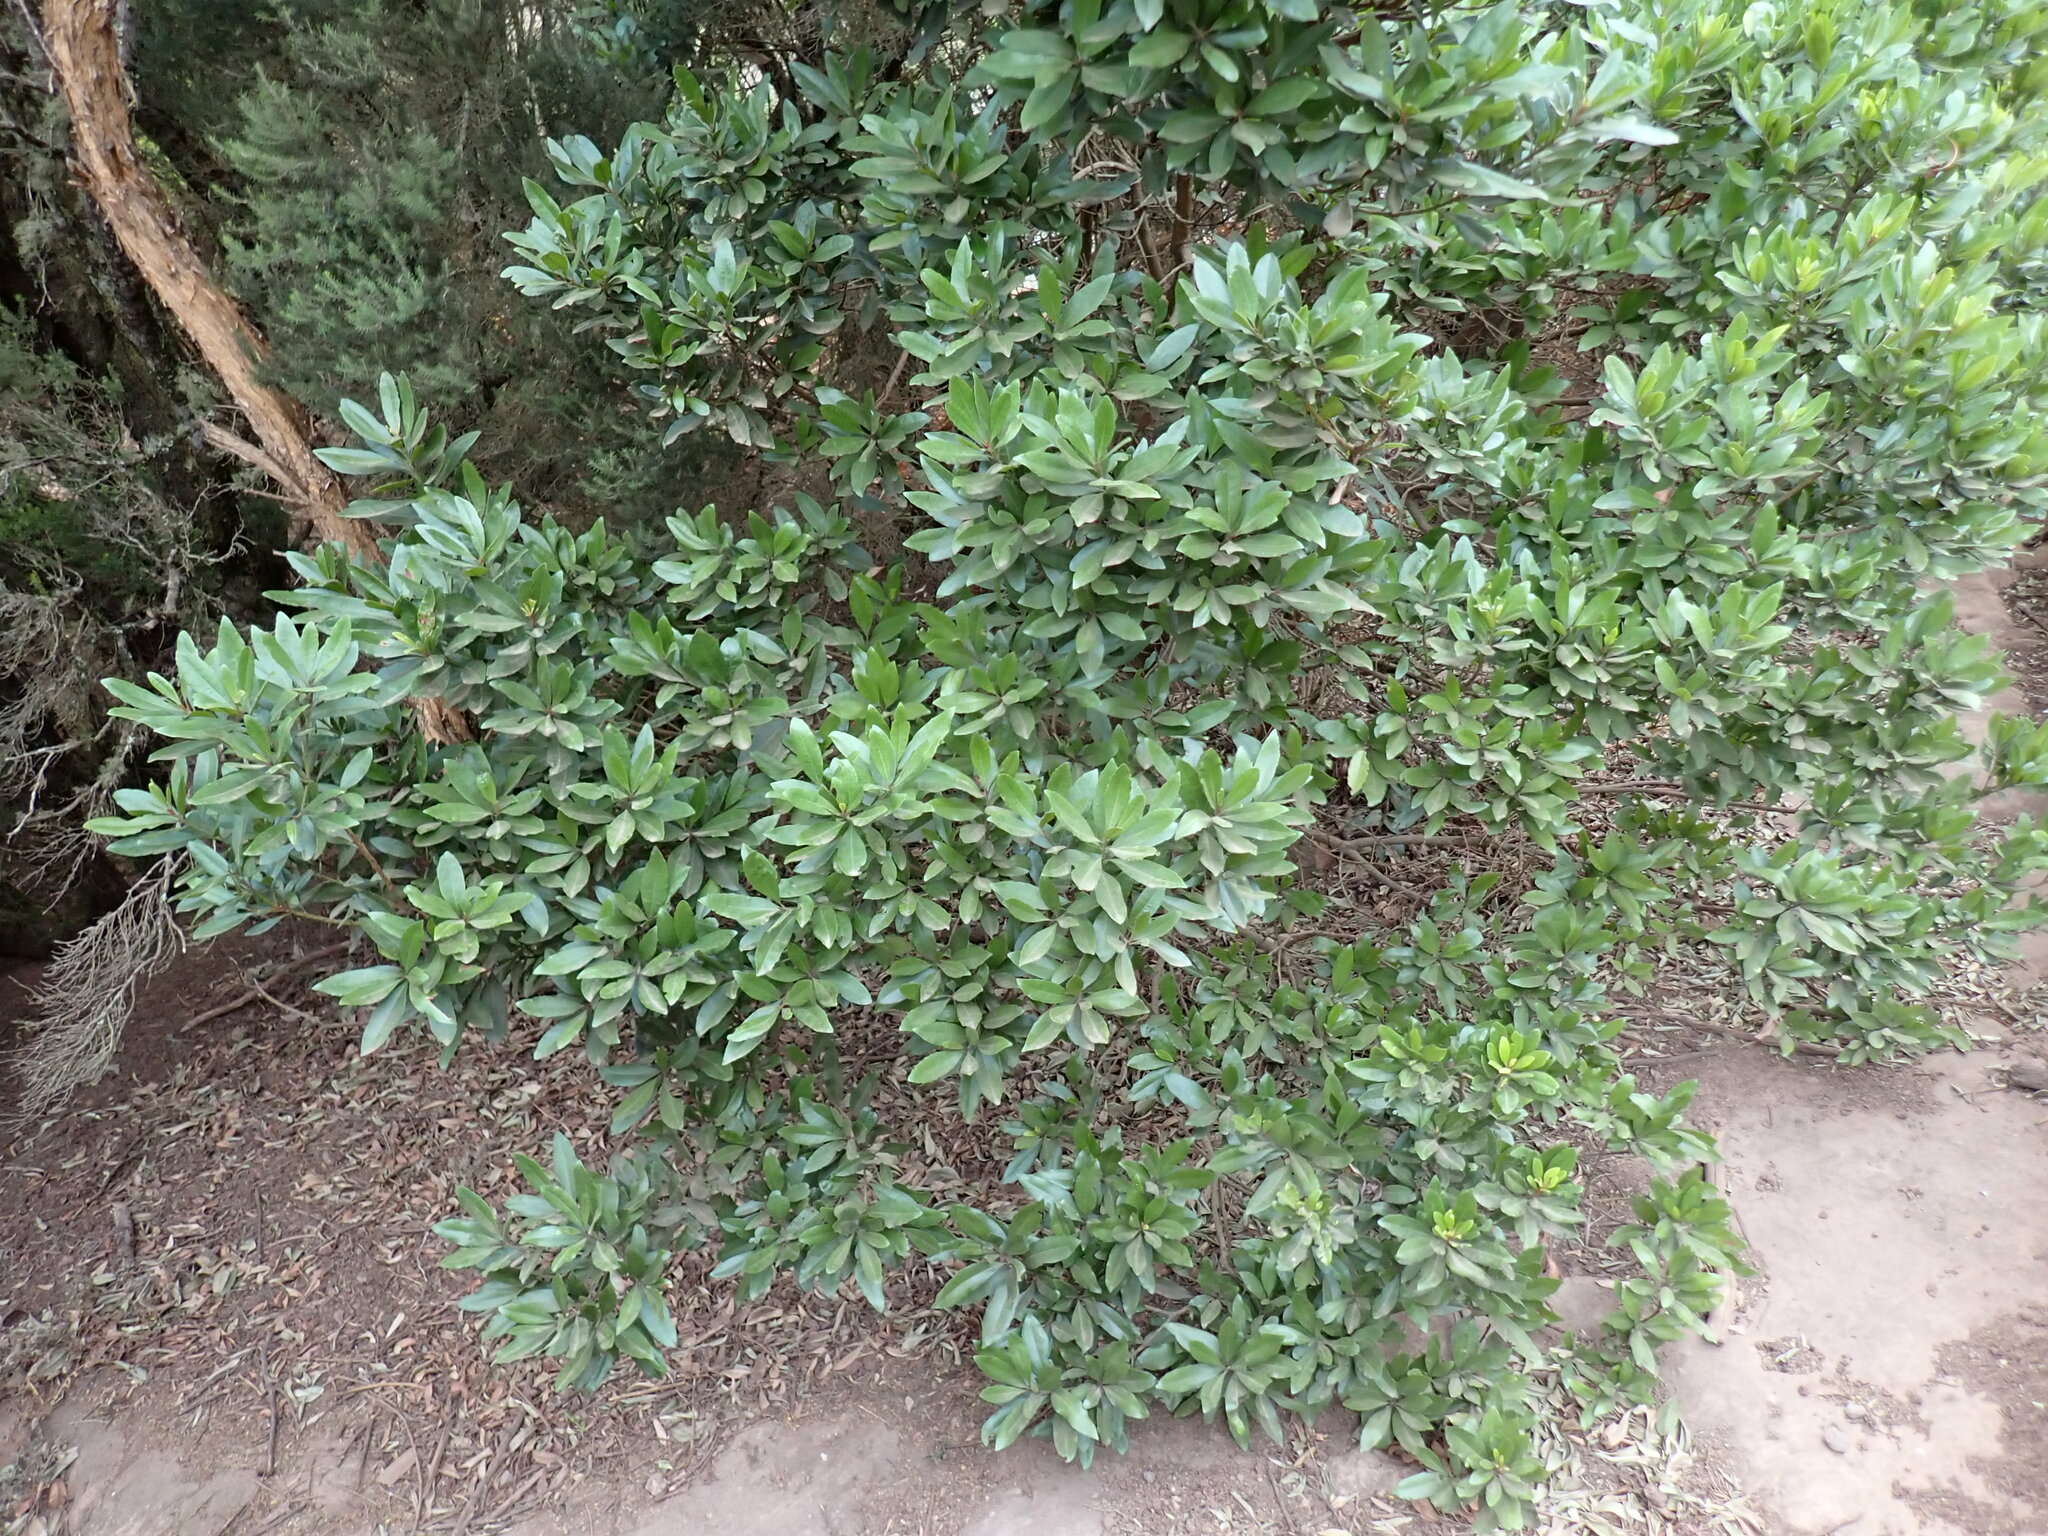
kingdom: Plantae
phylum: Tracheophyta
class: Magnoliopsida
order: Fagales
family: Myricaceae
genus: Morella
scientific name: Morella faya
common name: Firetree
